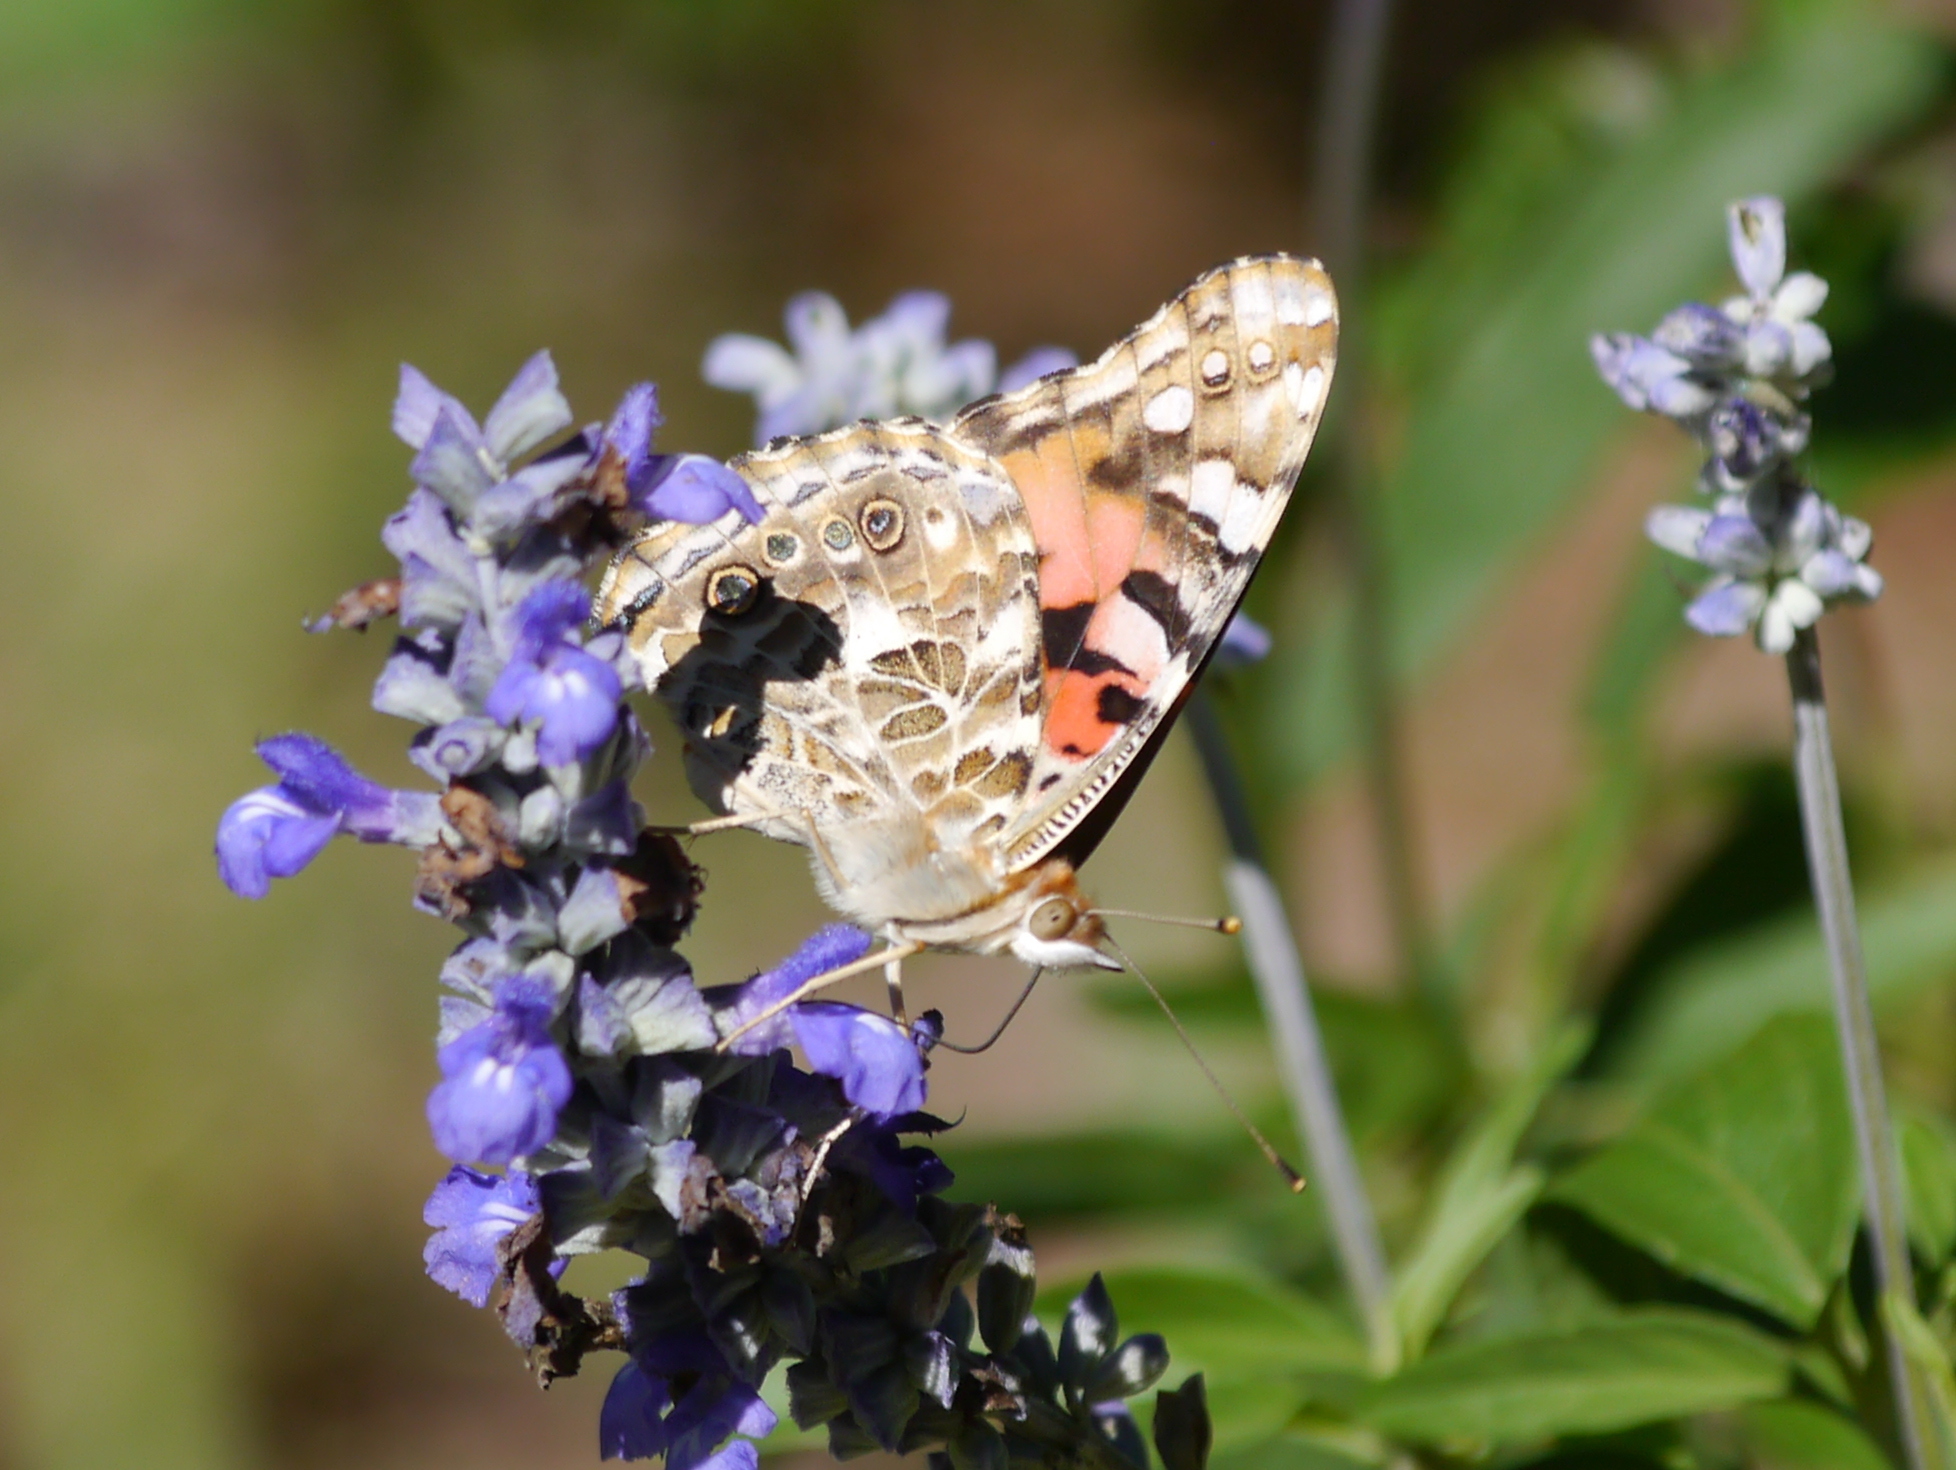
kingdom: Animalia
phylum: Arthropoda
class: Insecta
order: Lepidoptera
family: Nymphalidae
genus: Vanessa
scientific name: Vanessa cardui
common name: Painted lady
